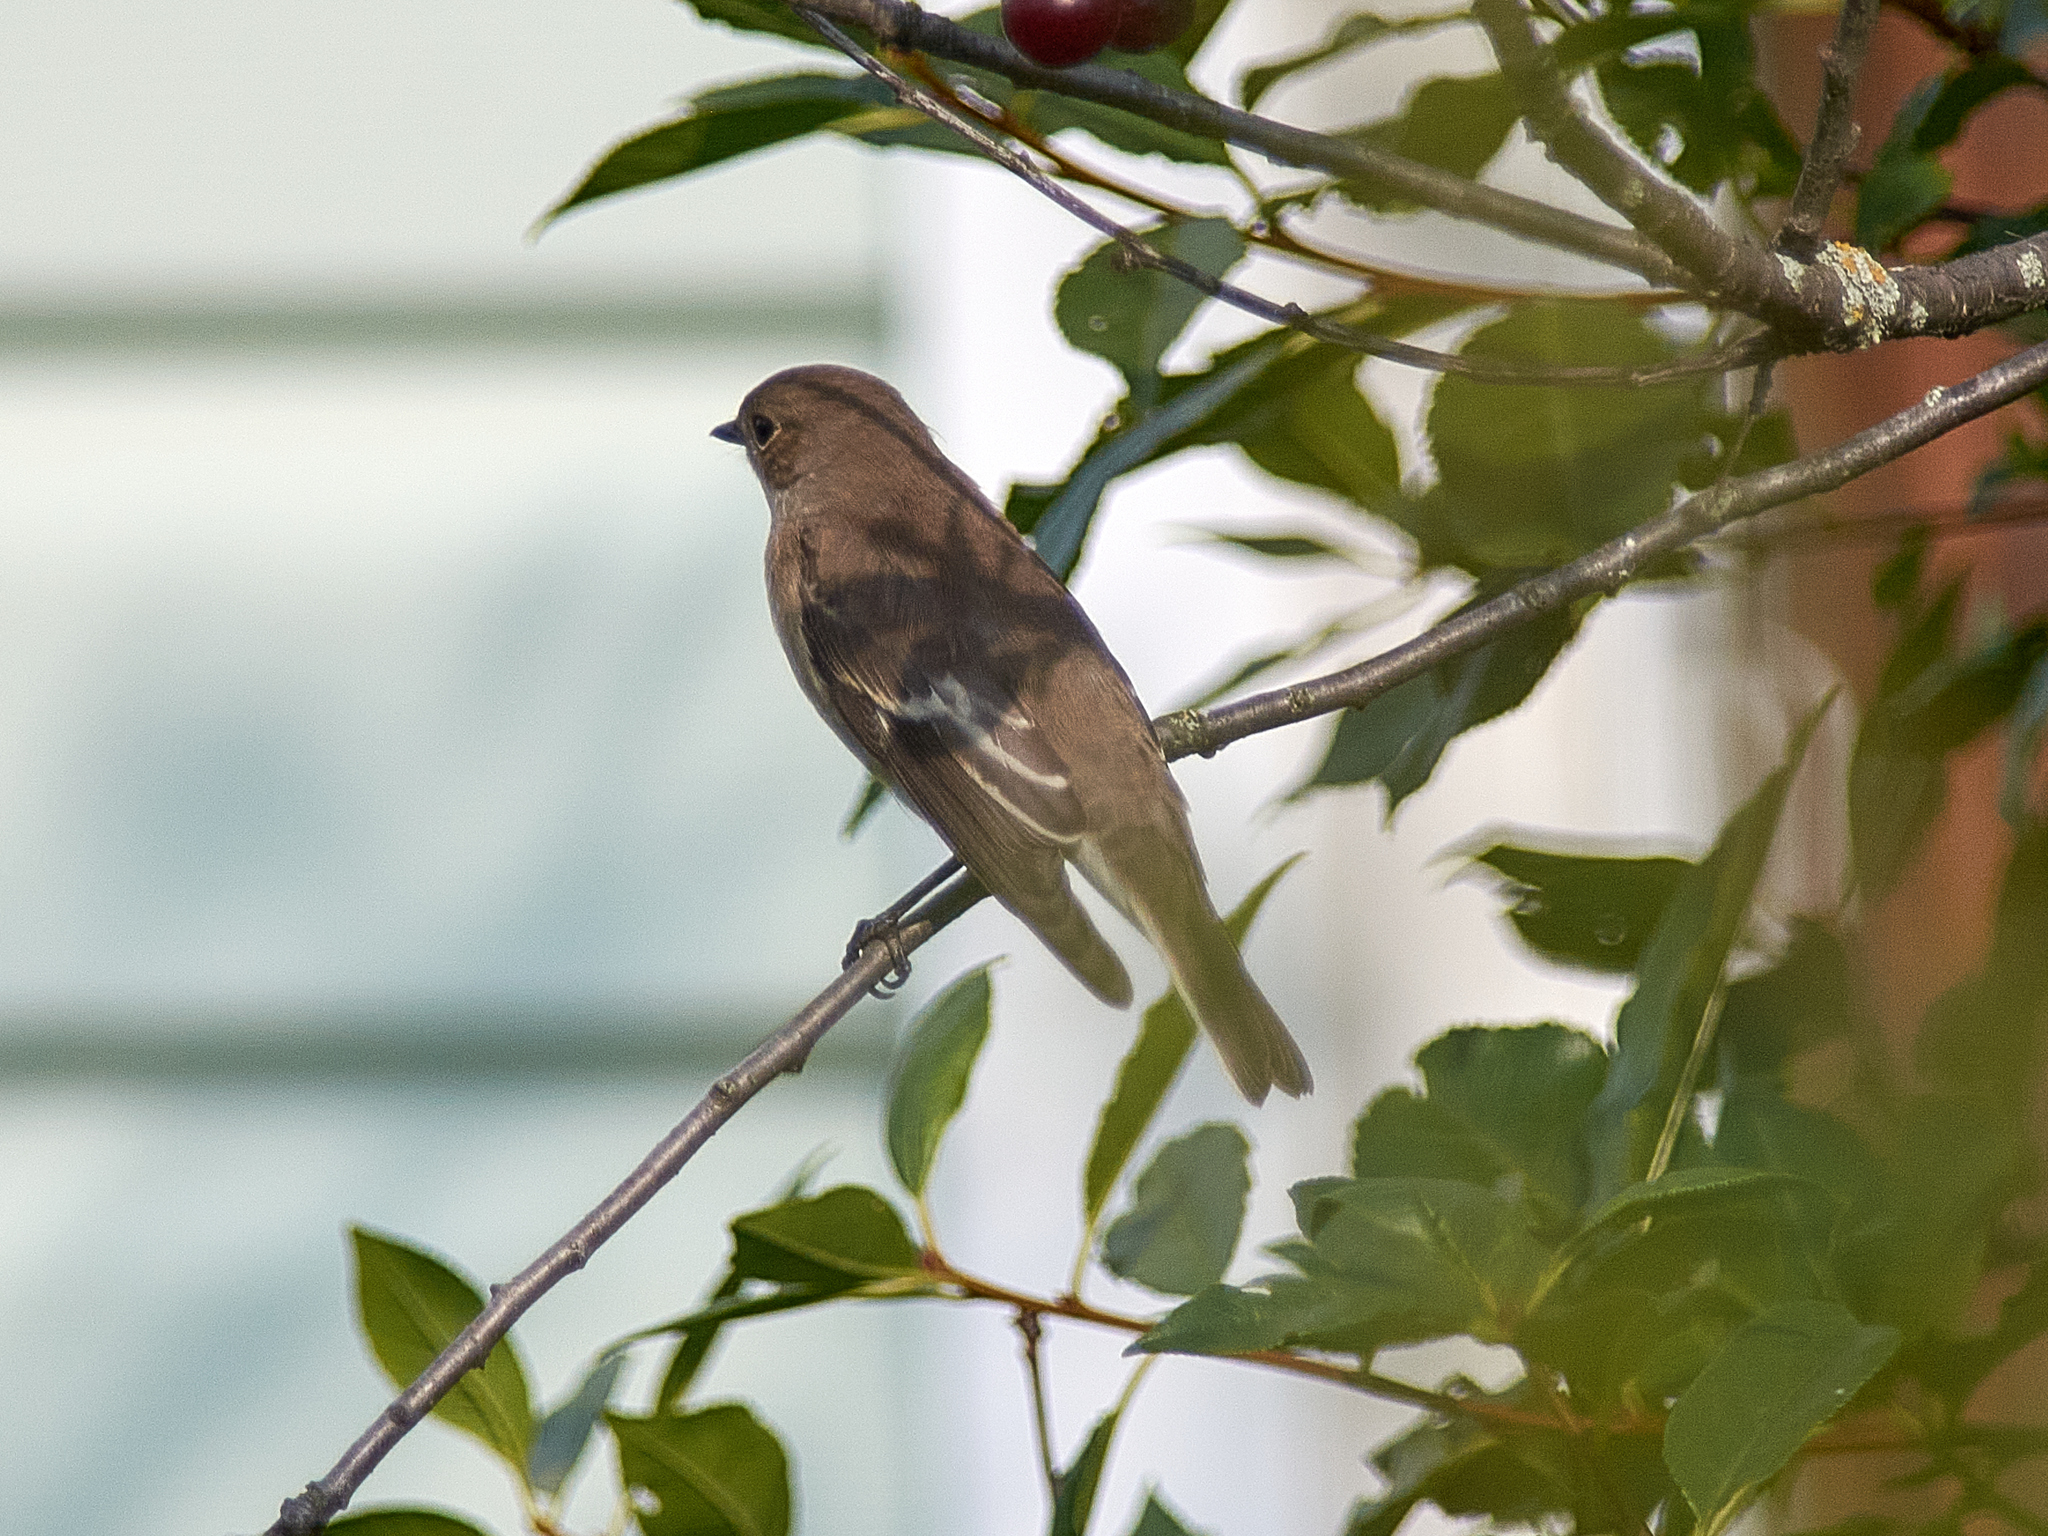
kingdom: Animalia
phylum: Chordata
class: Aves
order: Passeriformes
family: Muscicapidae
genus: Ficedula
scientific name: Ficedula hypoleuca
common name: European pied flycatcher
